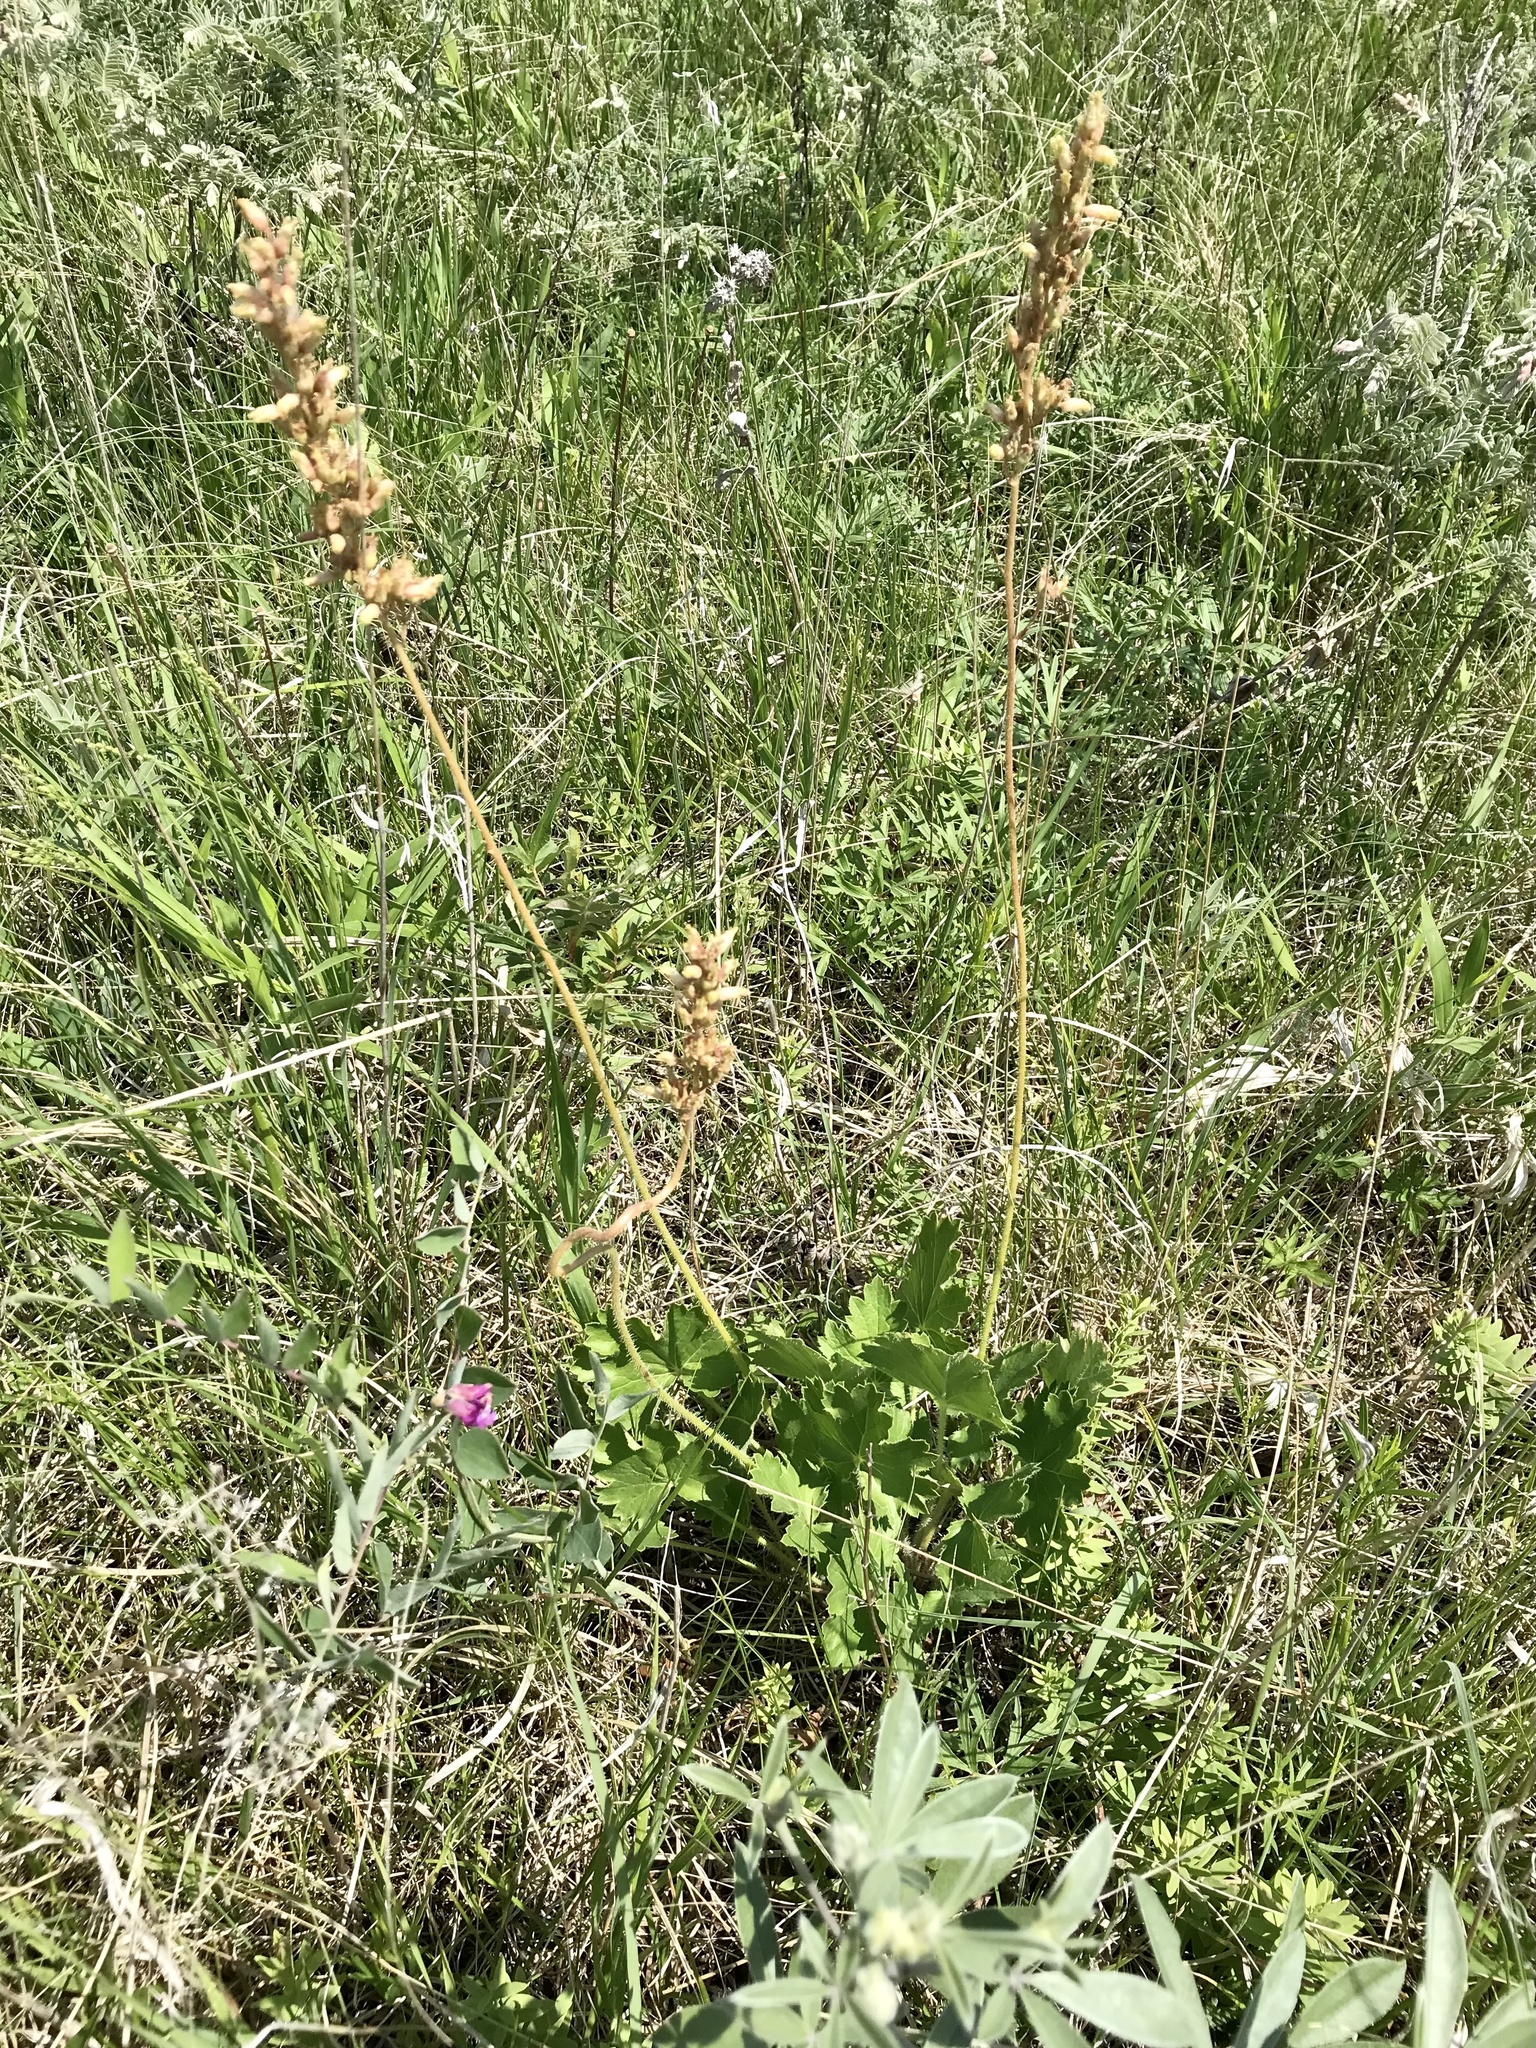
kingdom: Plantae
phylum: Tracheophyta
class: Magnoliopsida
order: Saxifragales
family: Saxifragaceae
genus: Heuchera
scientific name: Heuchera richardsonii
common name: Richardson's alumroot
